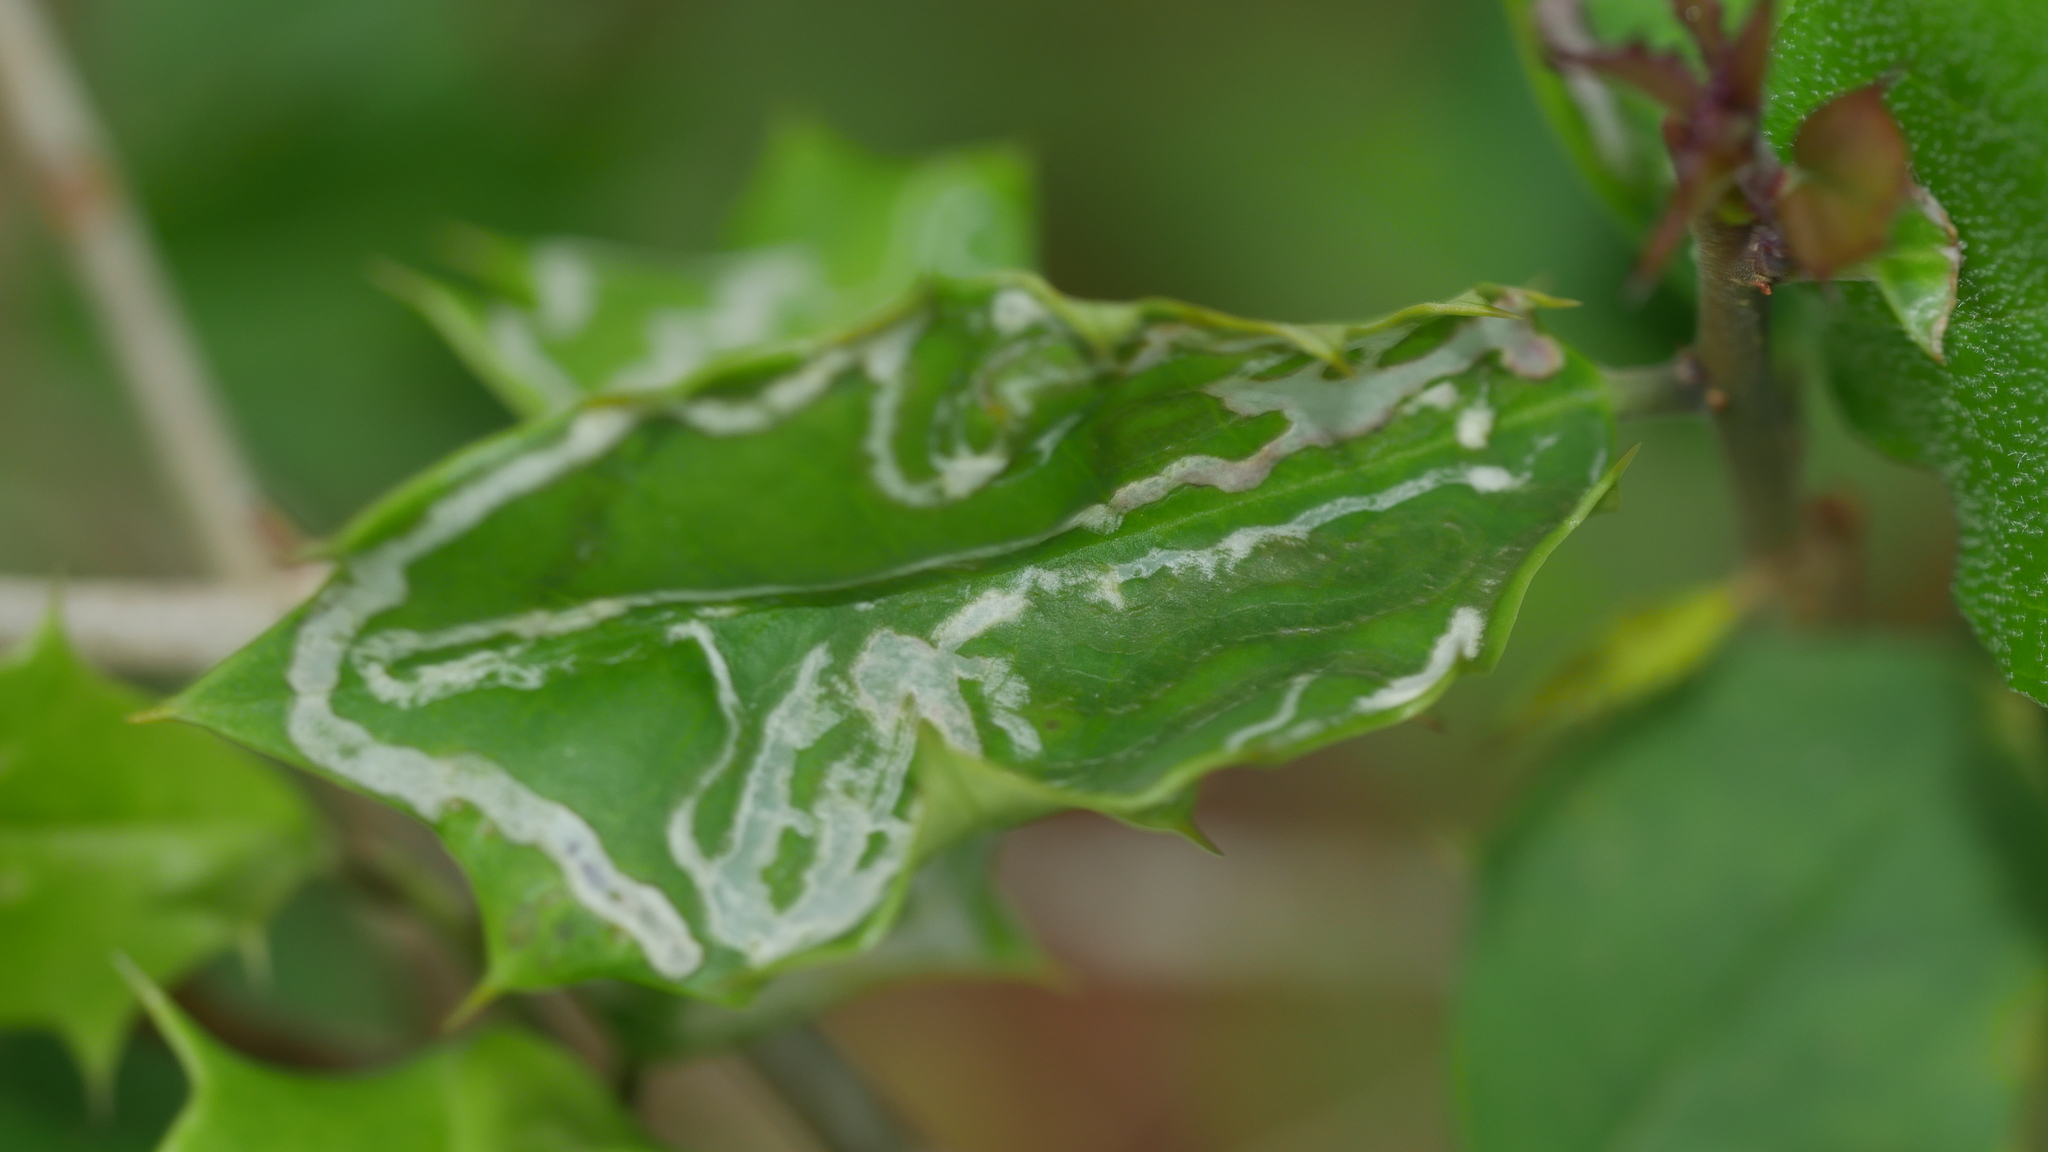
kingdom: Animalia
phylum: Arthropoda
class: Insecta
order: Diptera
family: Agromyzidae
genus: Phytomyza
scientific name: Phytomyza opacae
